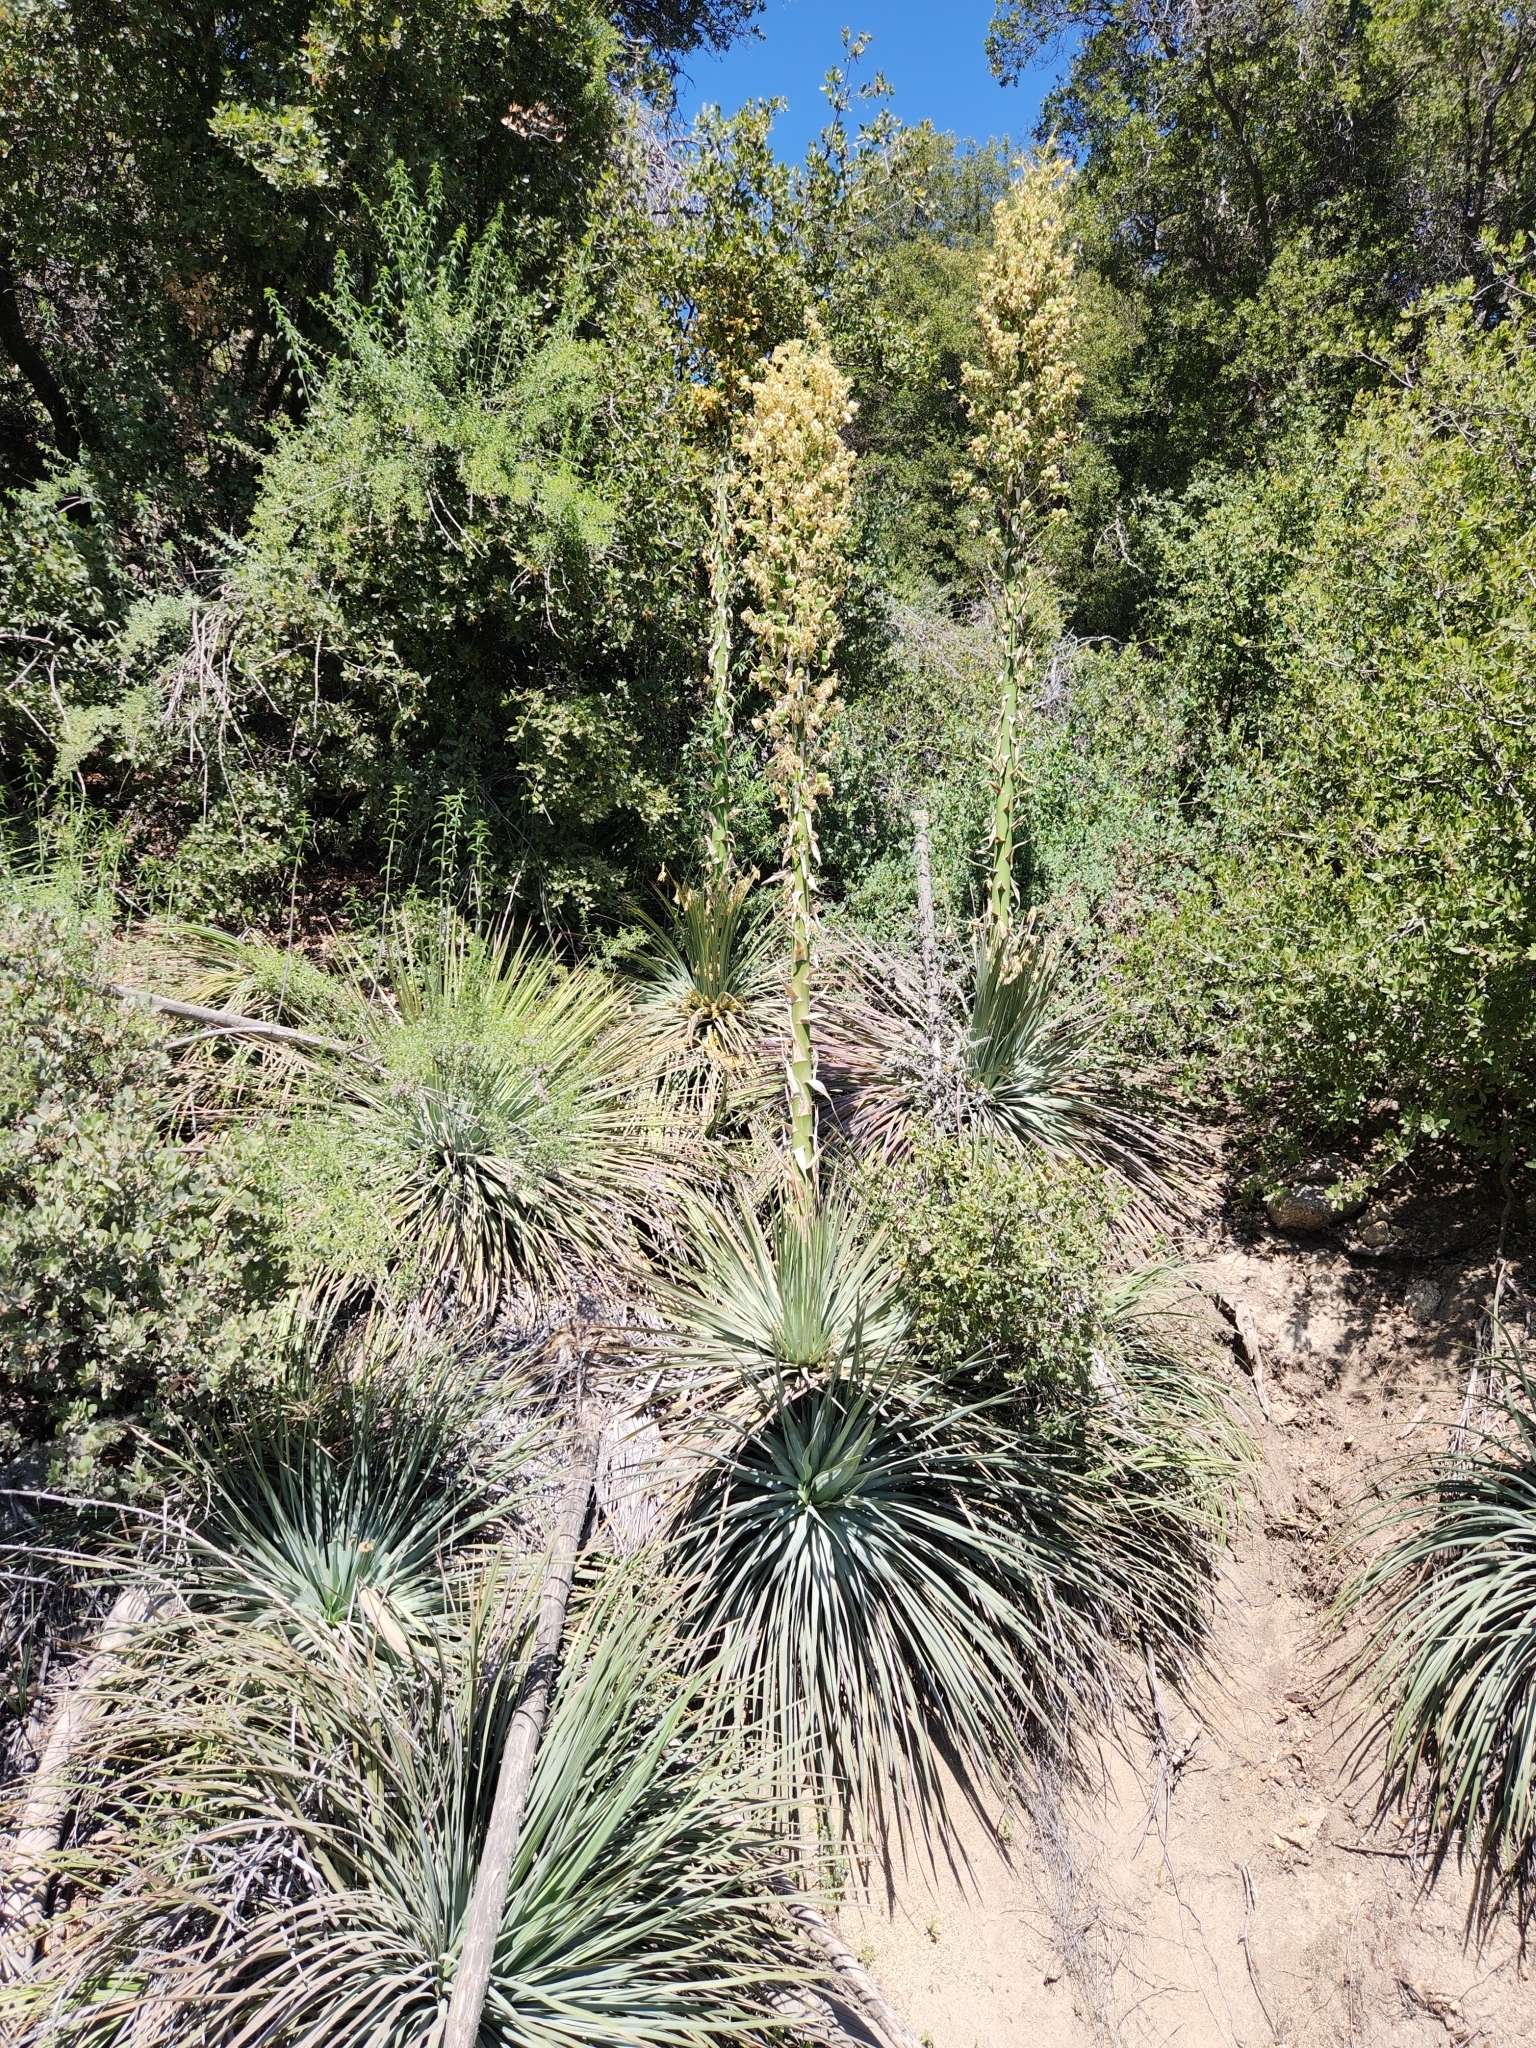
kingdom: Plantae
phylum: Tracheophyta
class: Liliopsida
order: Asparagales
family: Asparagaceae
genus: Hesperoyucca
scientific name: Hesperoyucca whipplei
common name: Our lord's-candle
